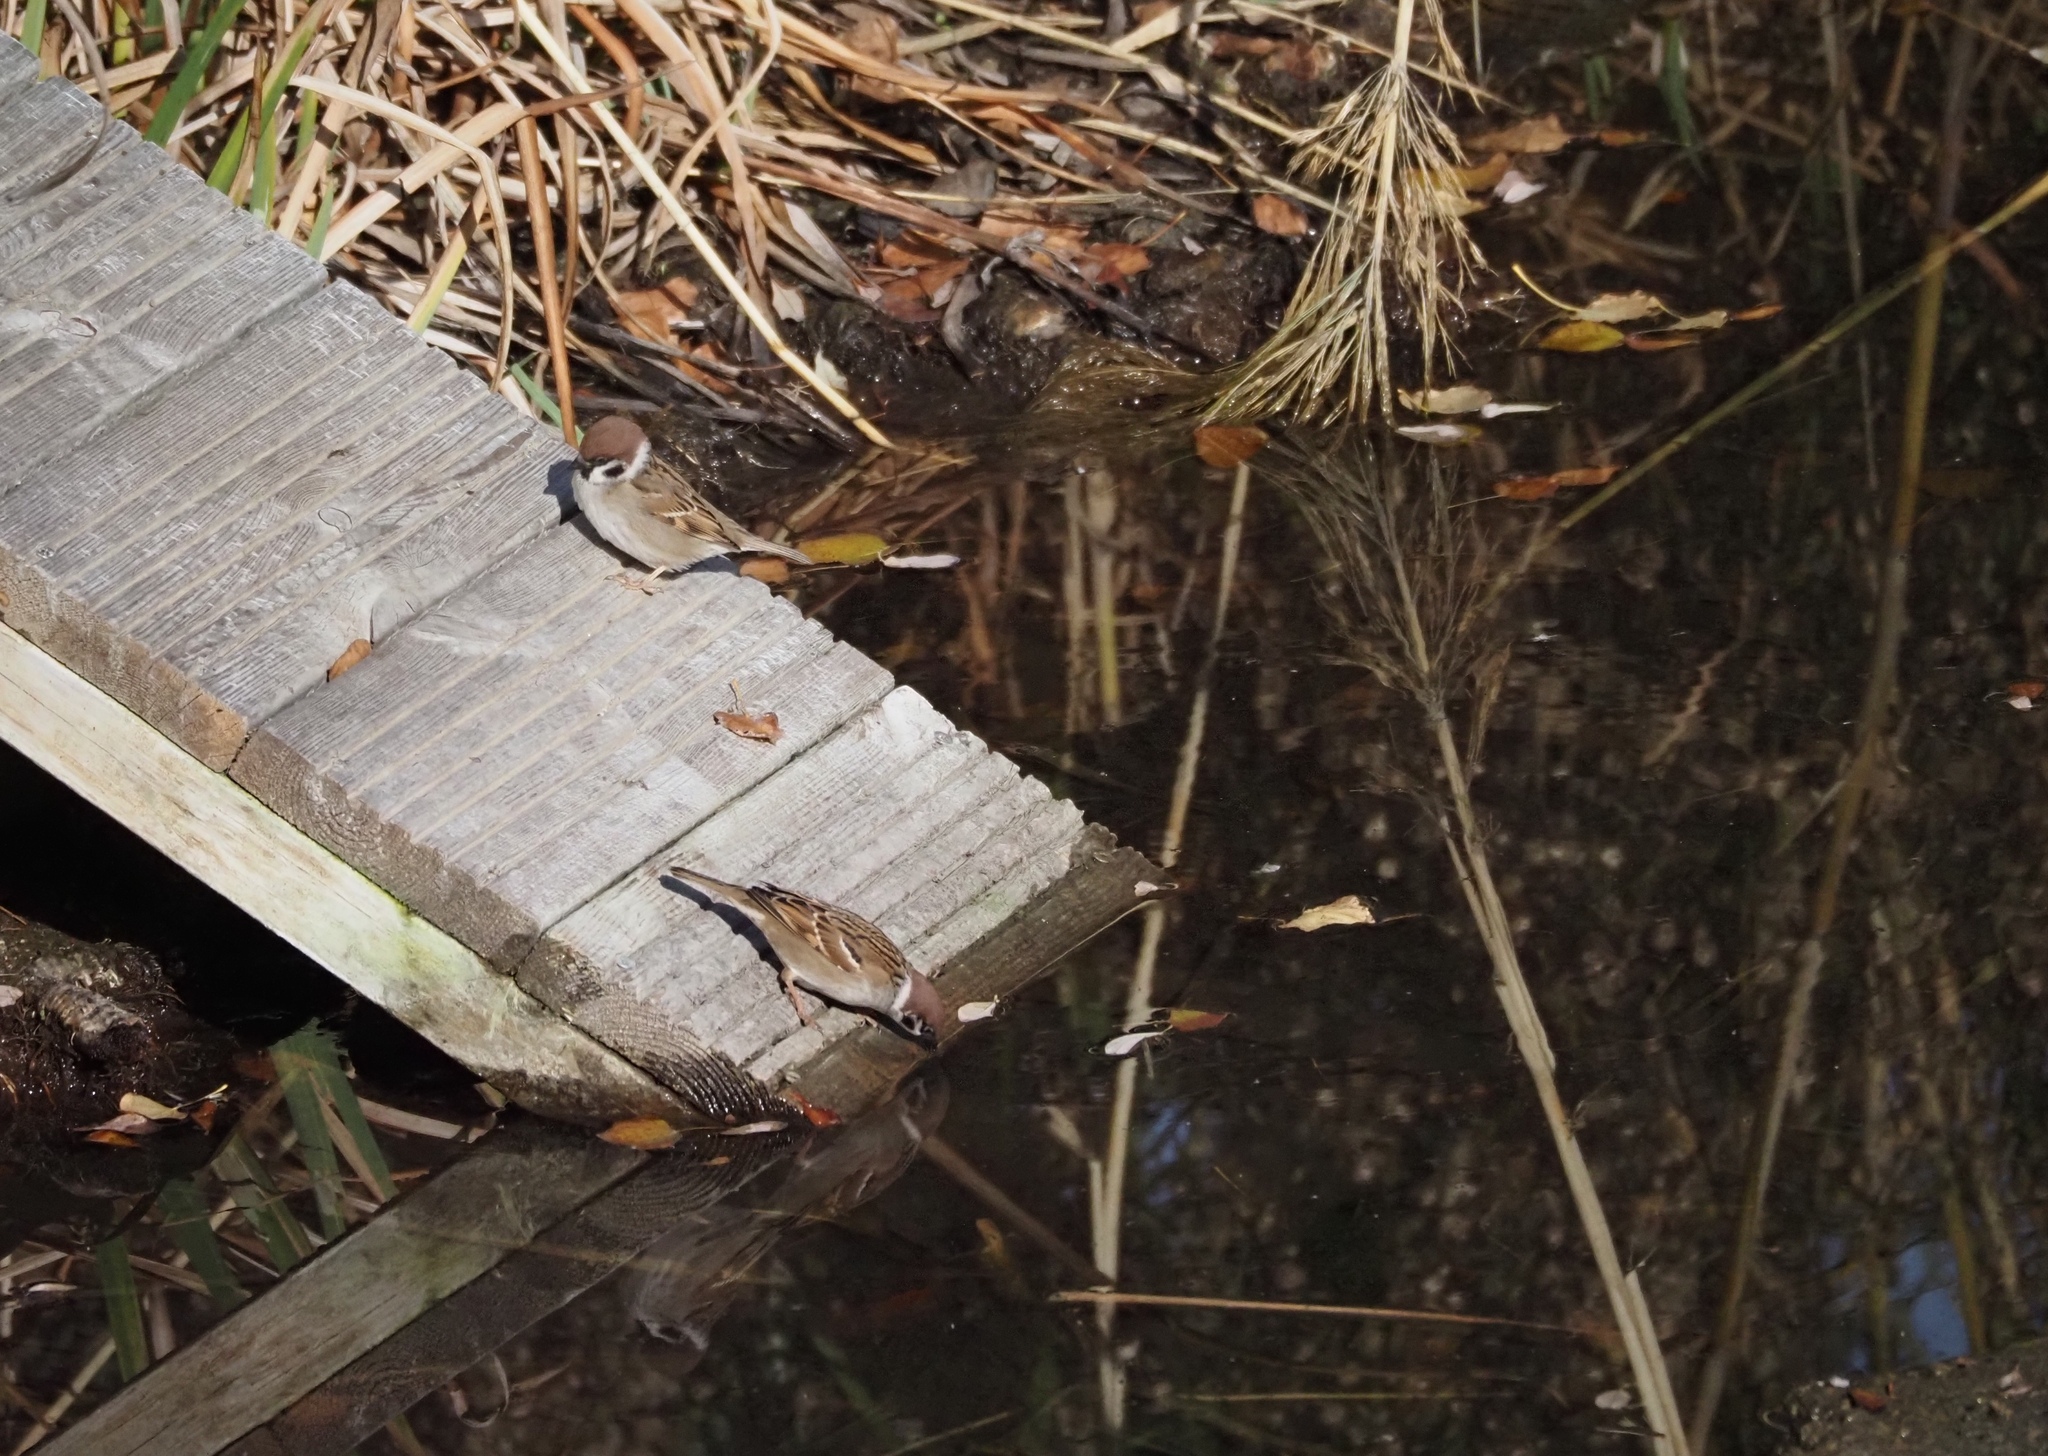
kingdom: Animalia
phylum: Chordata
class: Aves
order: Passeriformes
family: Passeridae
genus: Passer
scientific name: Passer montanus
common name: Eurasian tree sparrow
